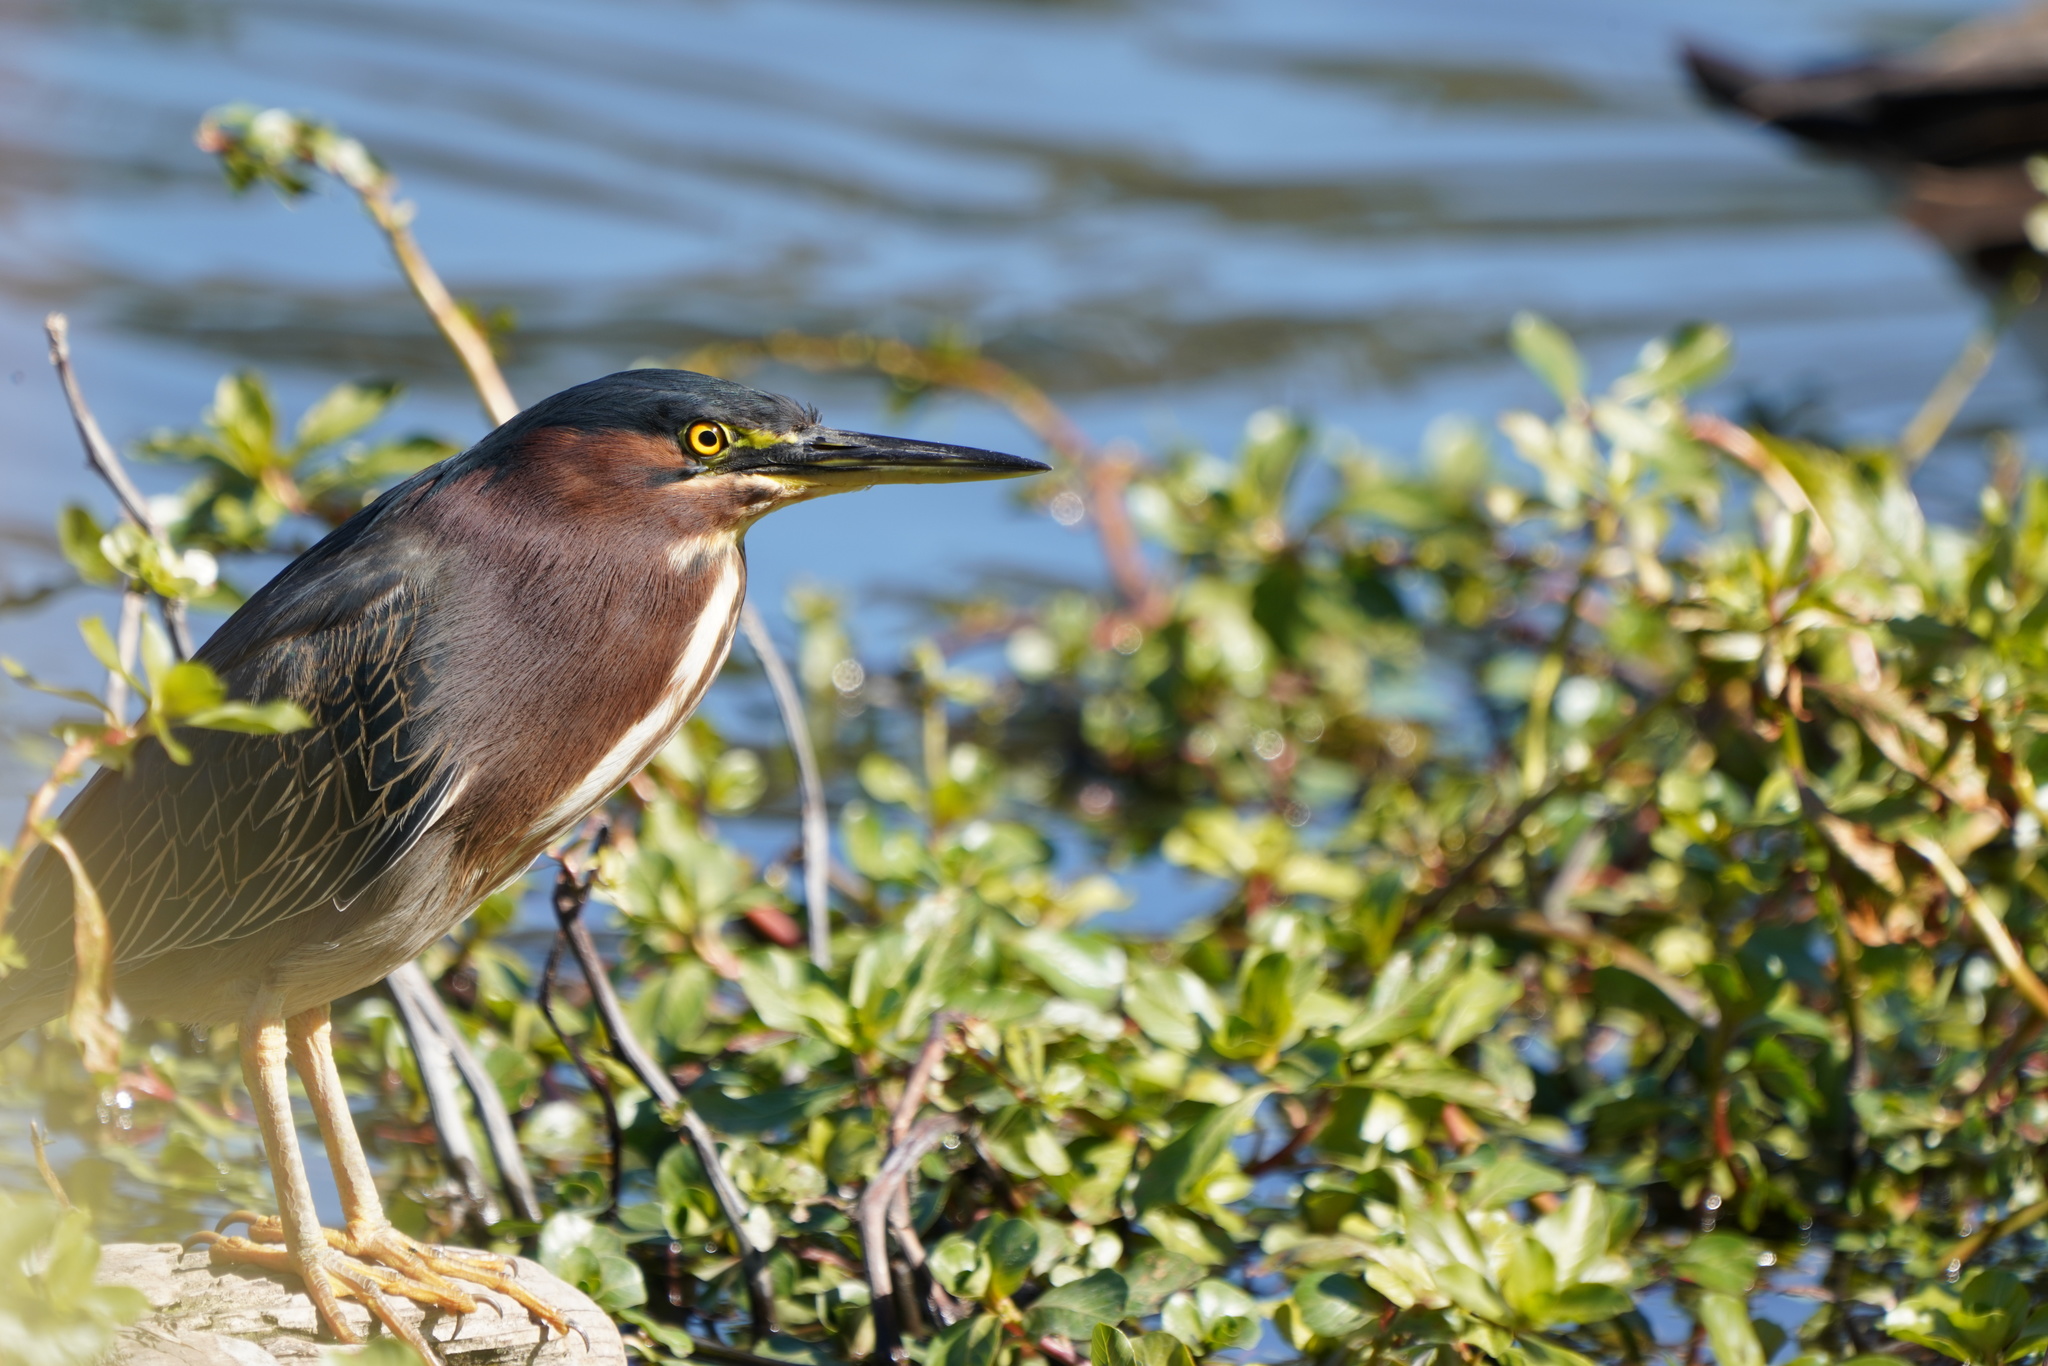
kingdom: Animalia
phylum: Chordata
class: Aves
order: Pelecaniformes
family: Ardeidae
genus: Butorides
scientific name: Butorides virescens
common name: Green heron
